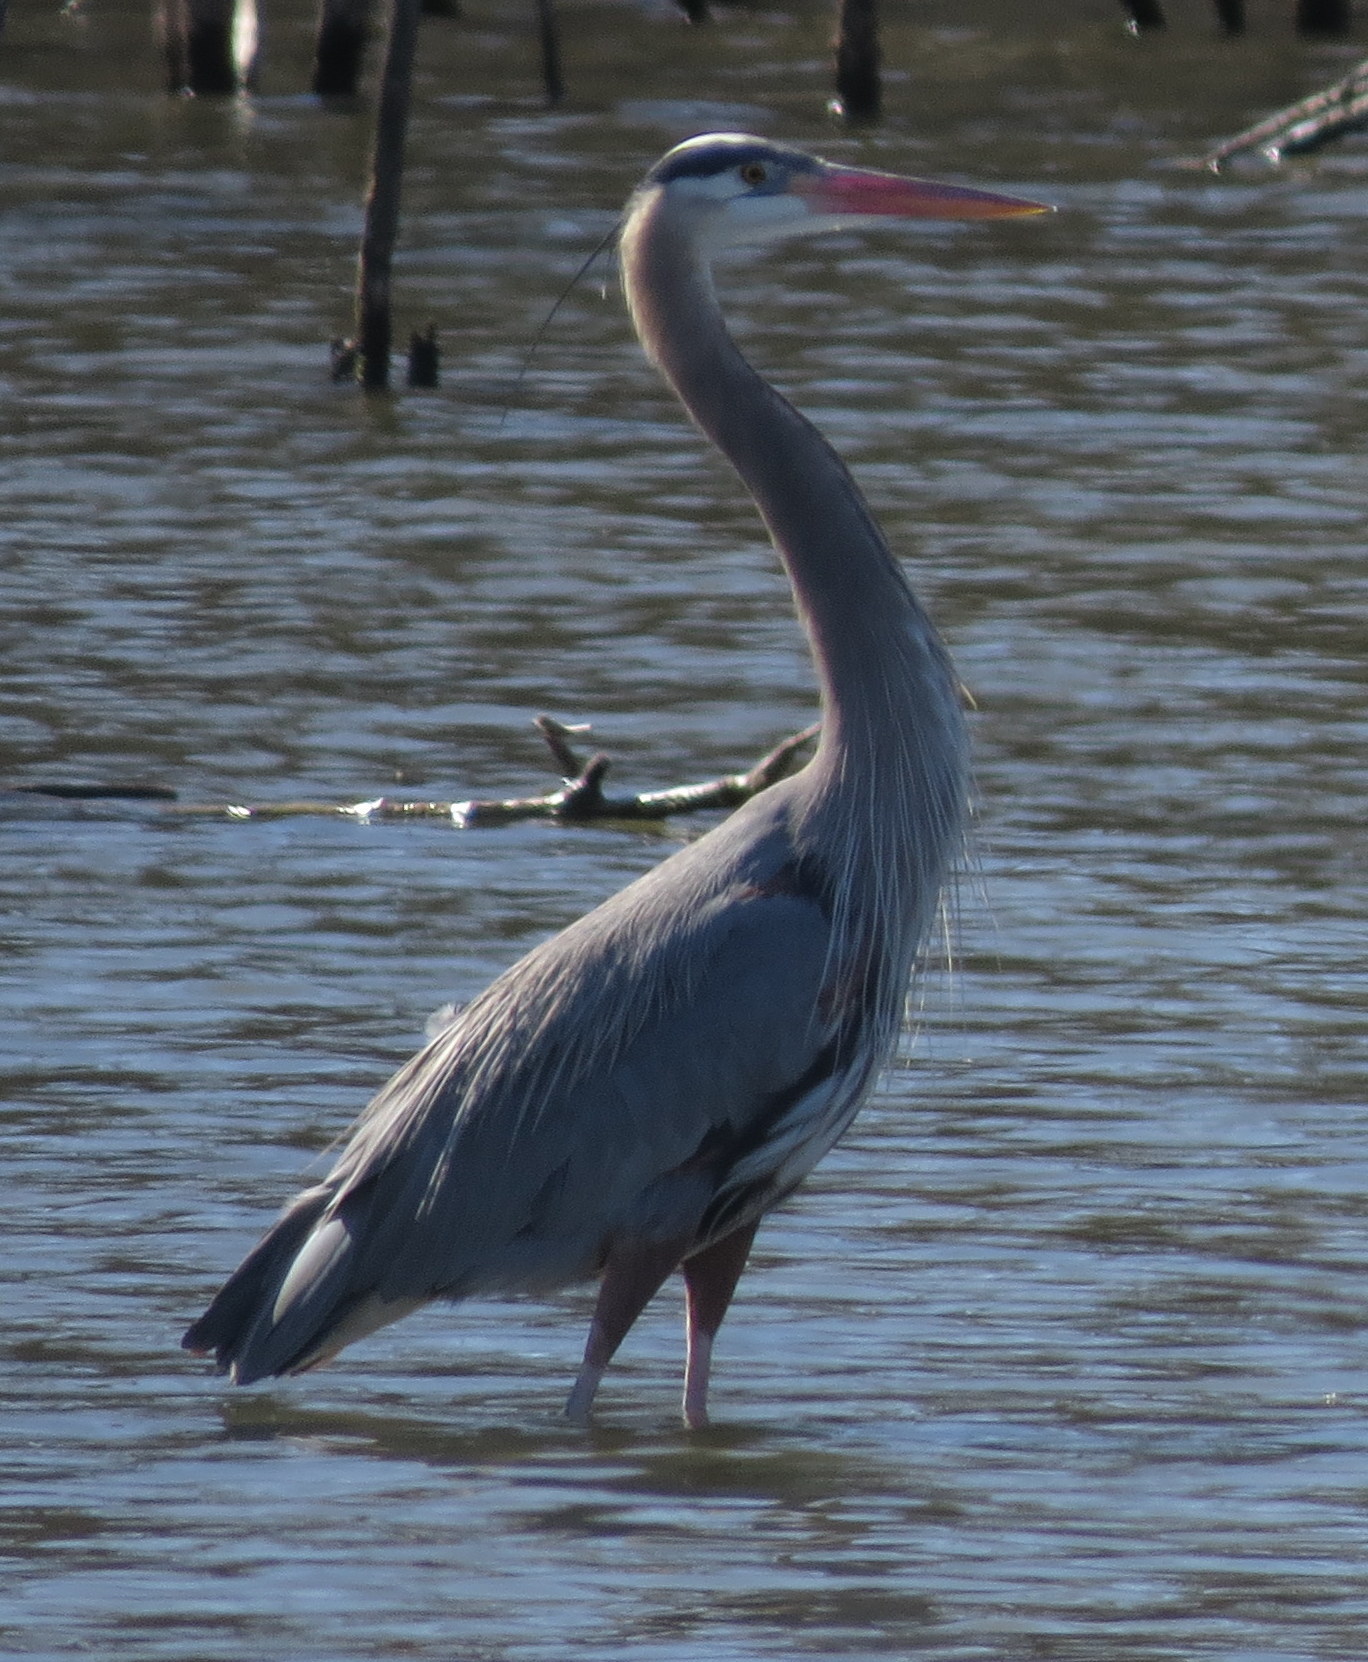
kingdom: Animalia
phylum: Chordata
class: Aves
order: Pelecaniformes
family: Ardeidae
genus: Ardea
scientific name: Ardea herodias
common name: Great blue heron
